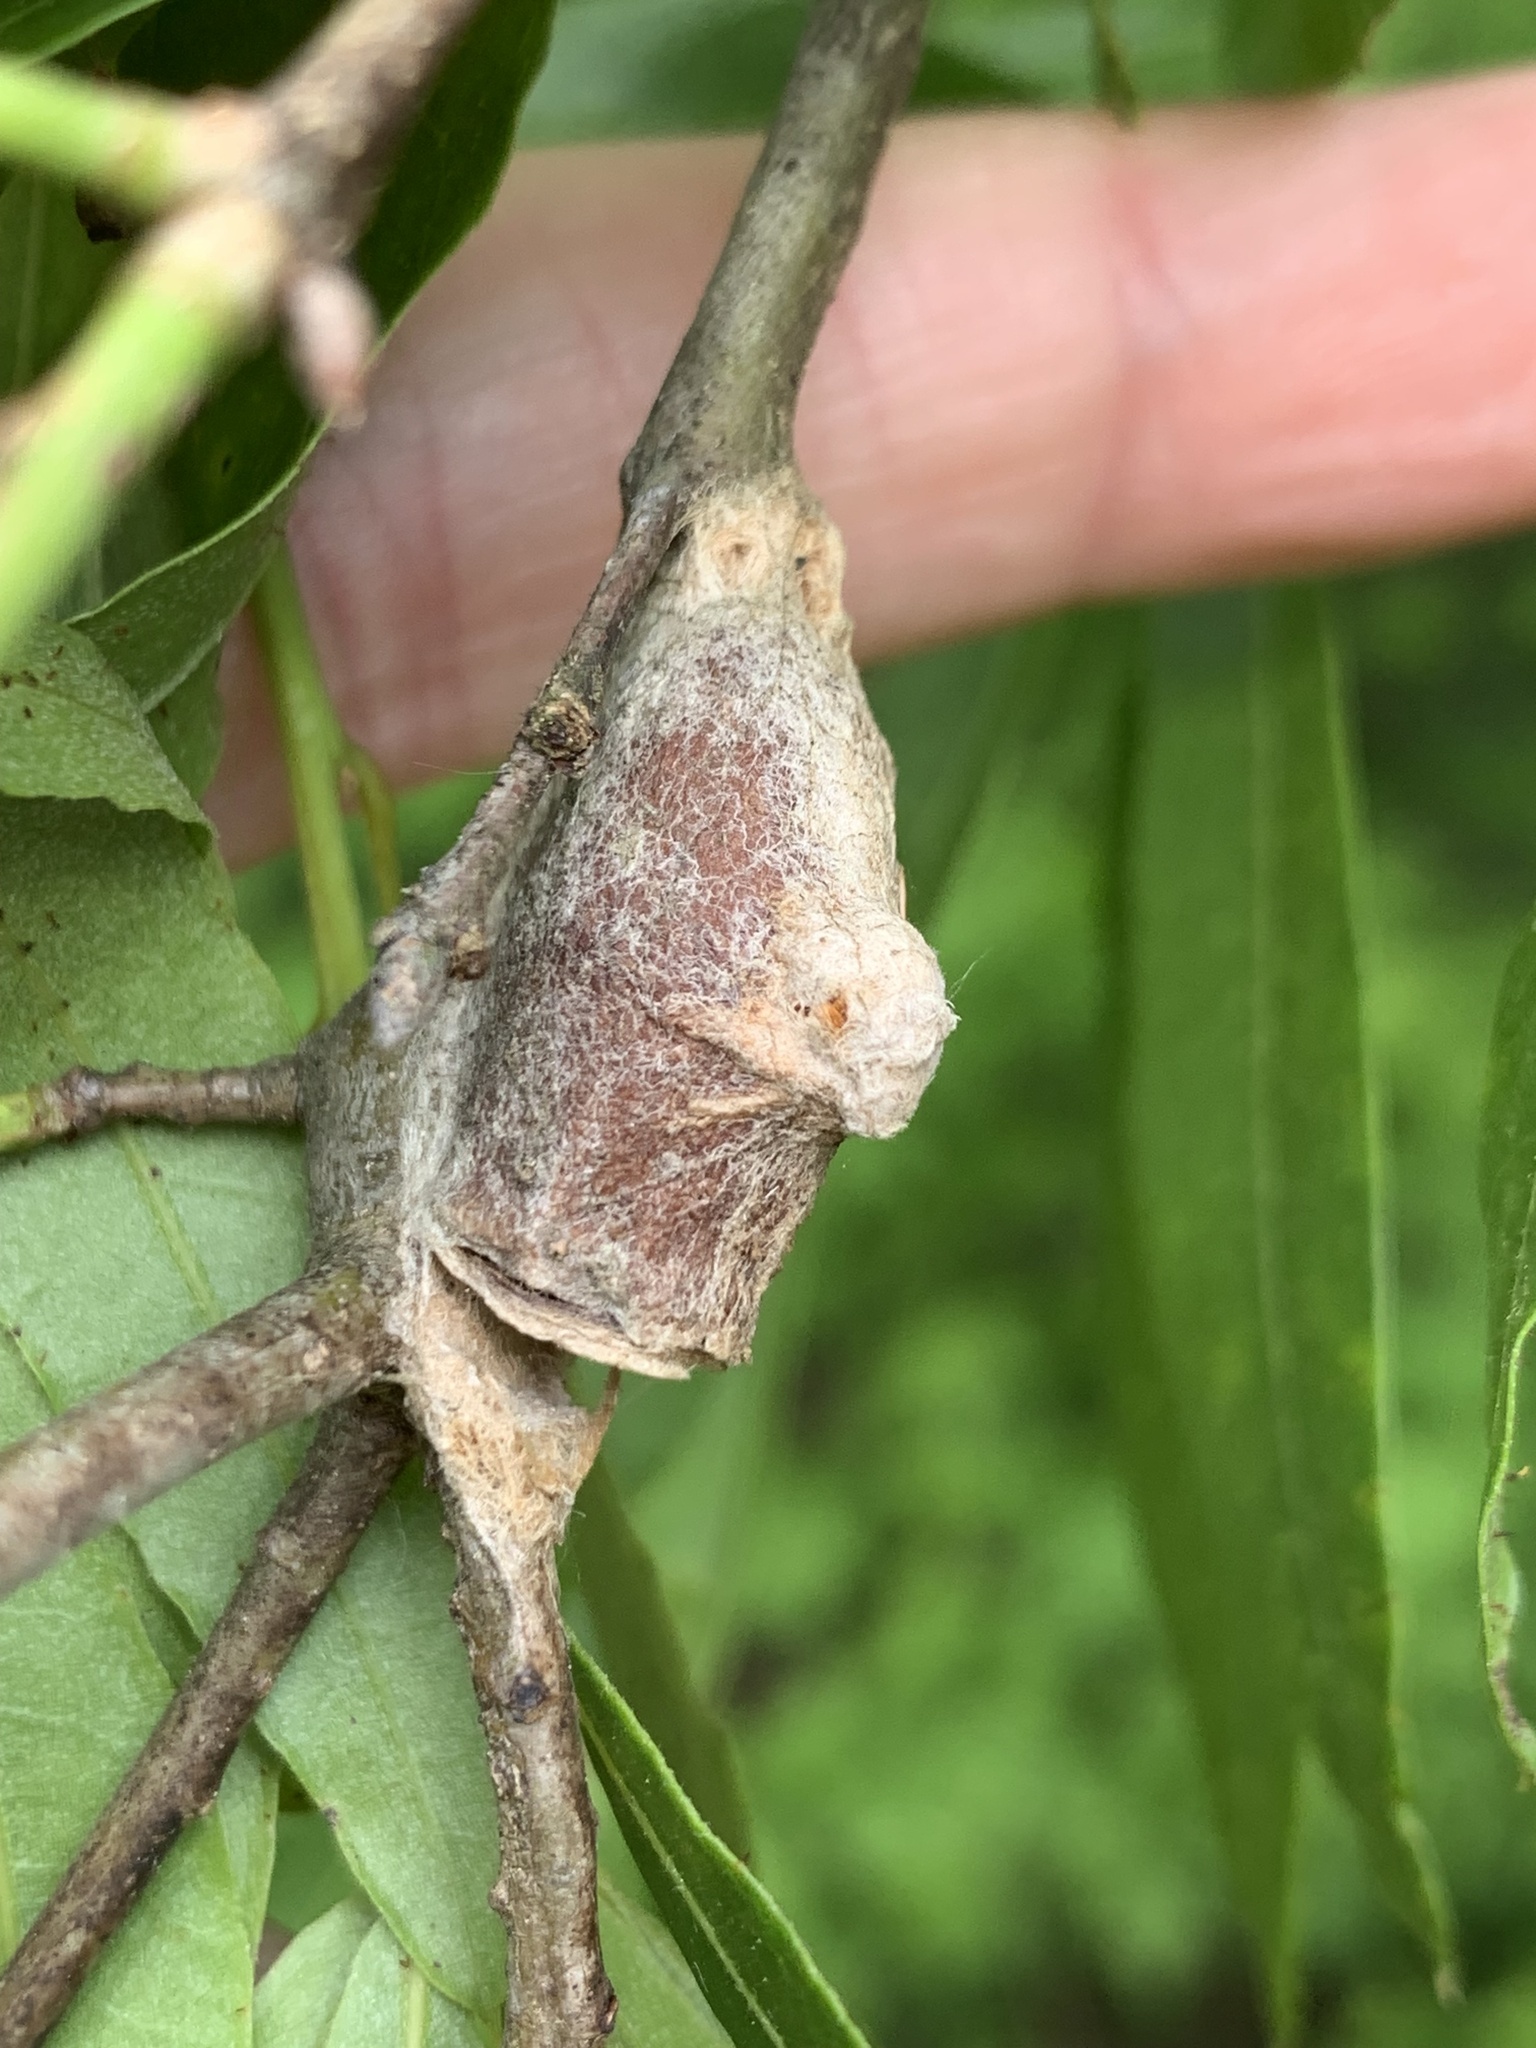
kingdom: Animalia
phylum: Arthropoda
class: Insecta
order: Lepidoptera
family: Megalopygidae
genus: Megalopyge
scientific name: Megalopyge
